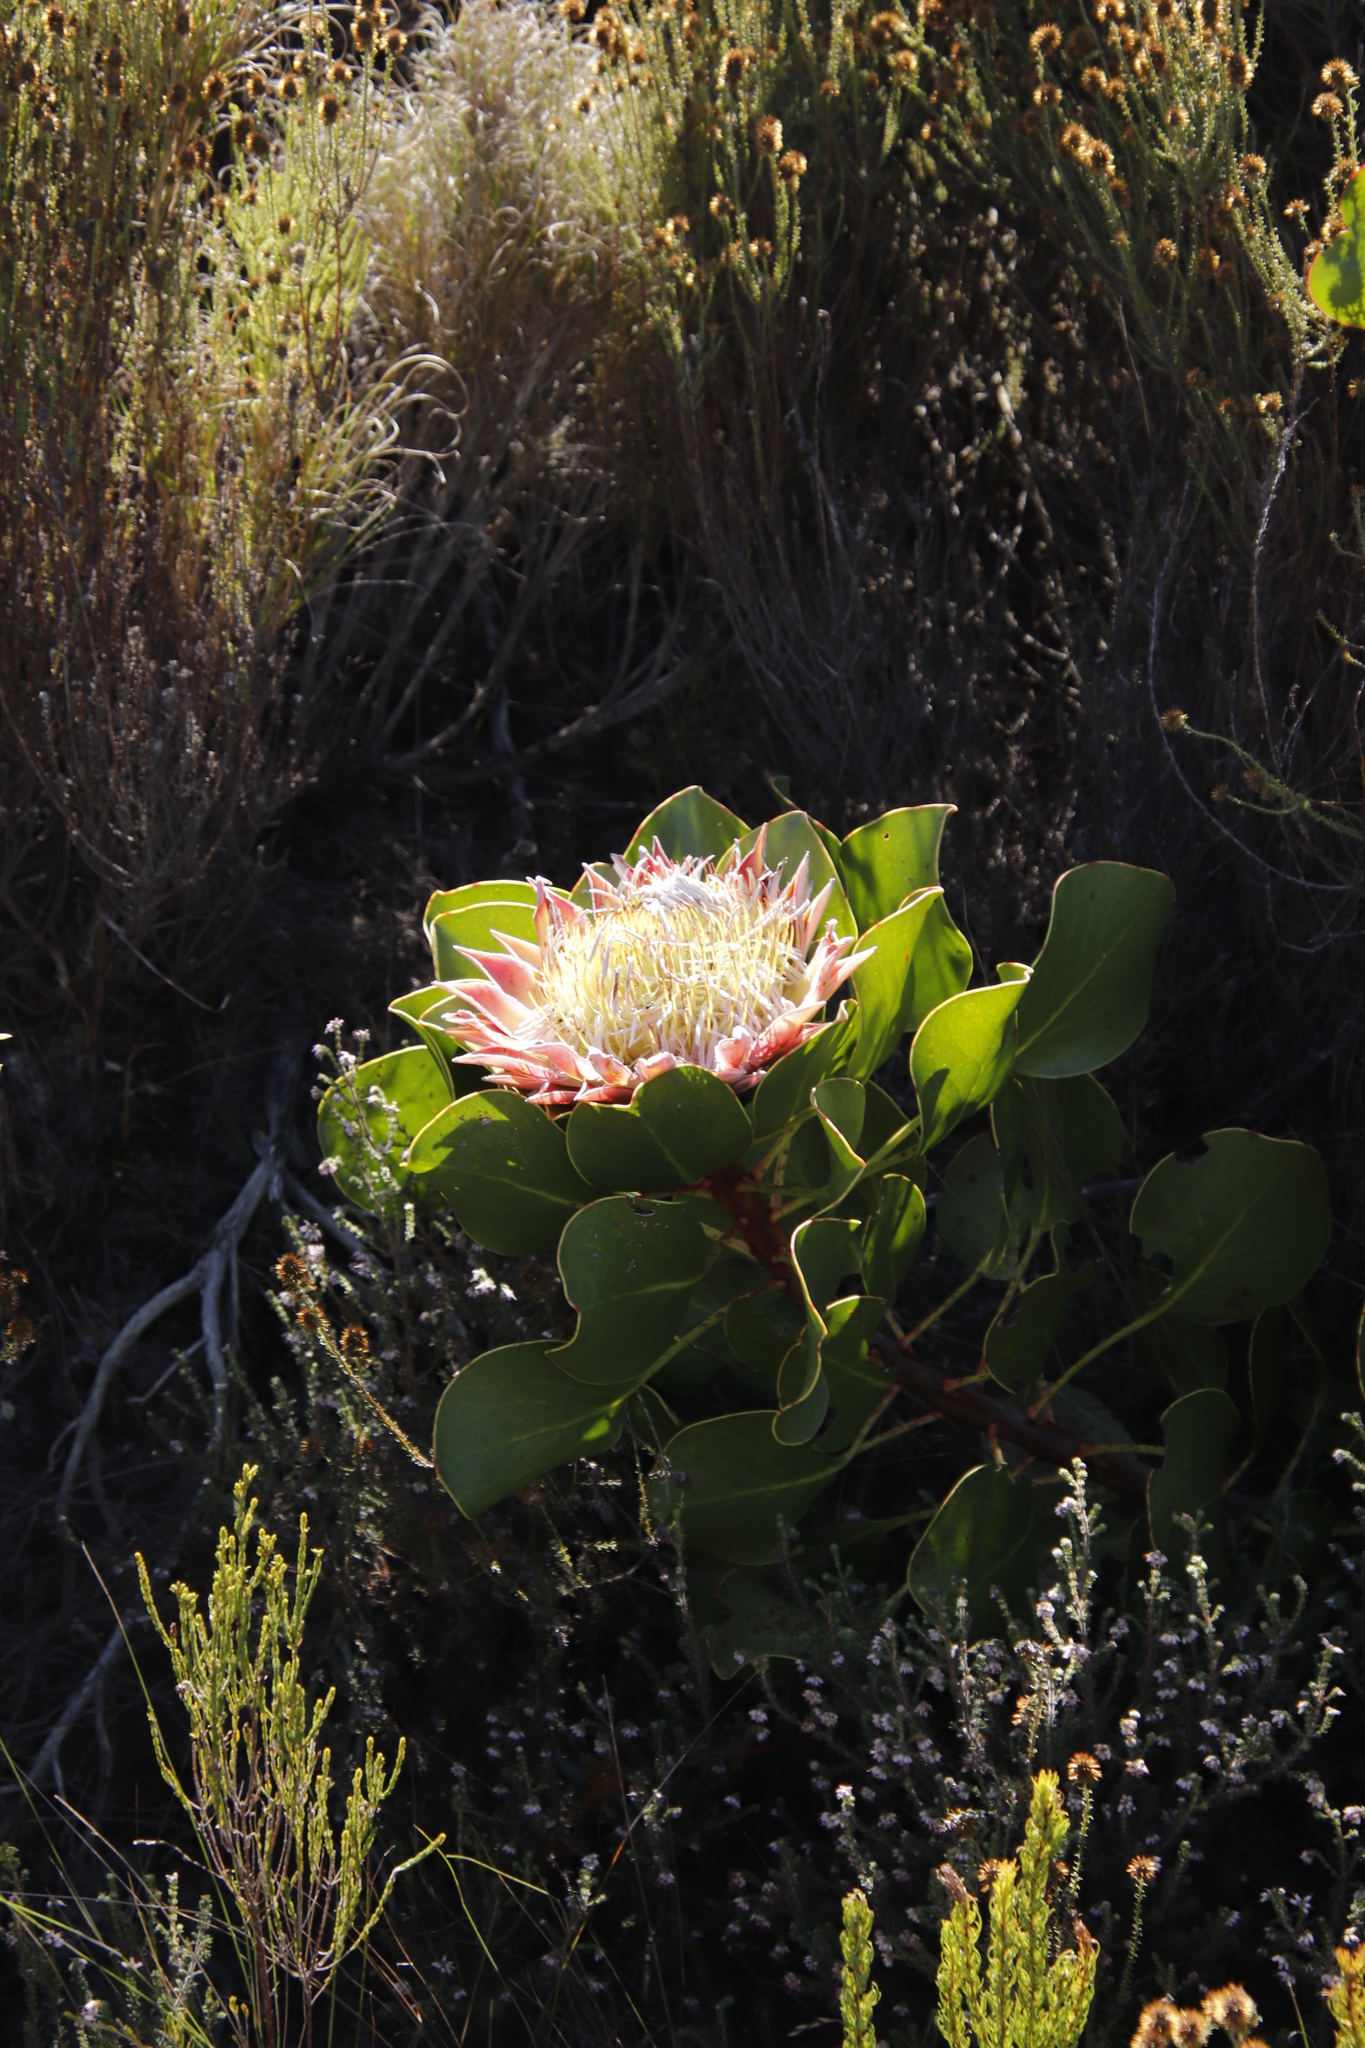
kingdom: Plantae
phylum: Tracheophyta
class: Magnoliopsida
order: Proteales
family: Proteaceae
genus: Protea
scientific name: Protea cynaroides
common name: King protea
